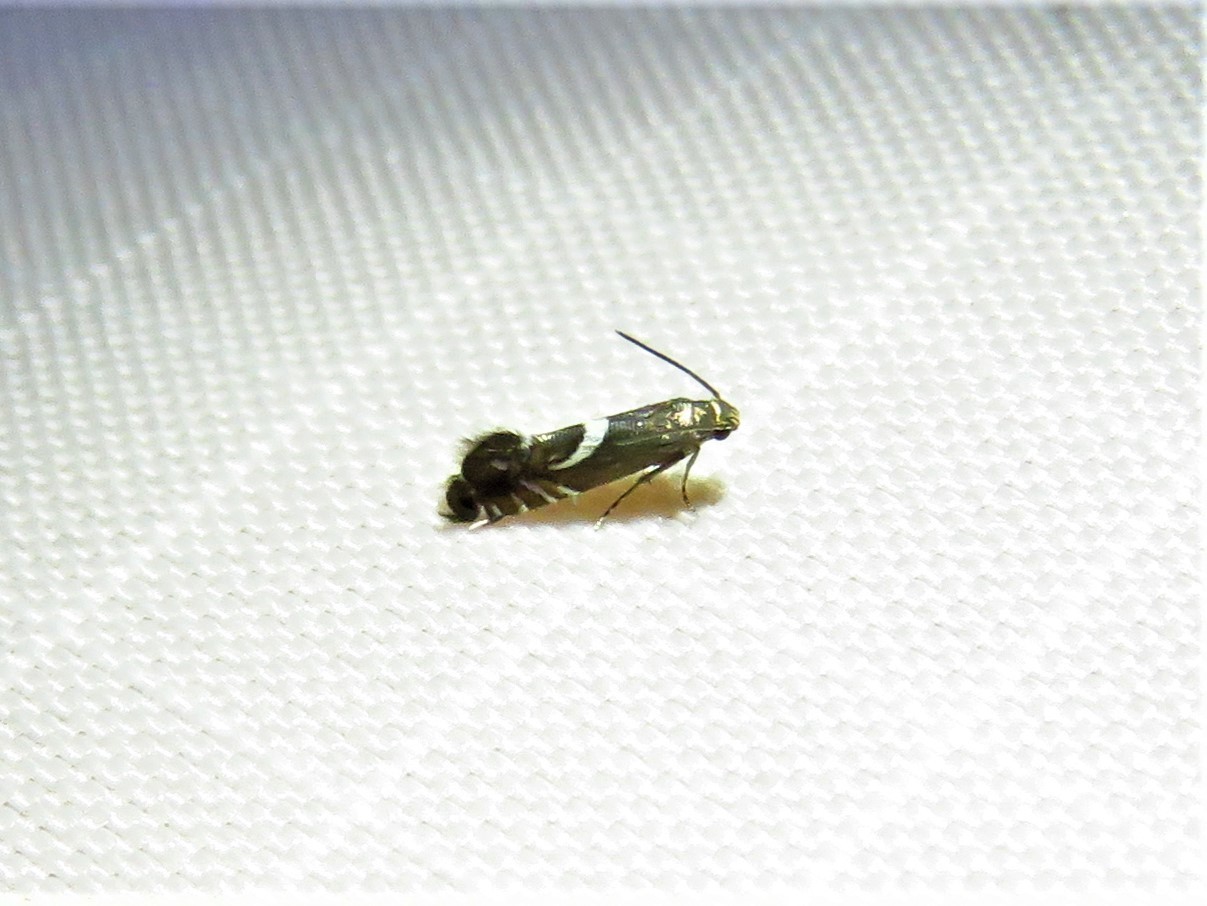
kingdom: Animalia
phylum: Arthropoda
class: Insecta
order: Lepidoptera
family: Glyphipterigidae
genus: Glyphipterix
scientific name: Glyphipterix Diploschizia impigritella
